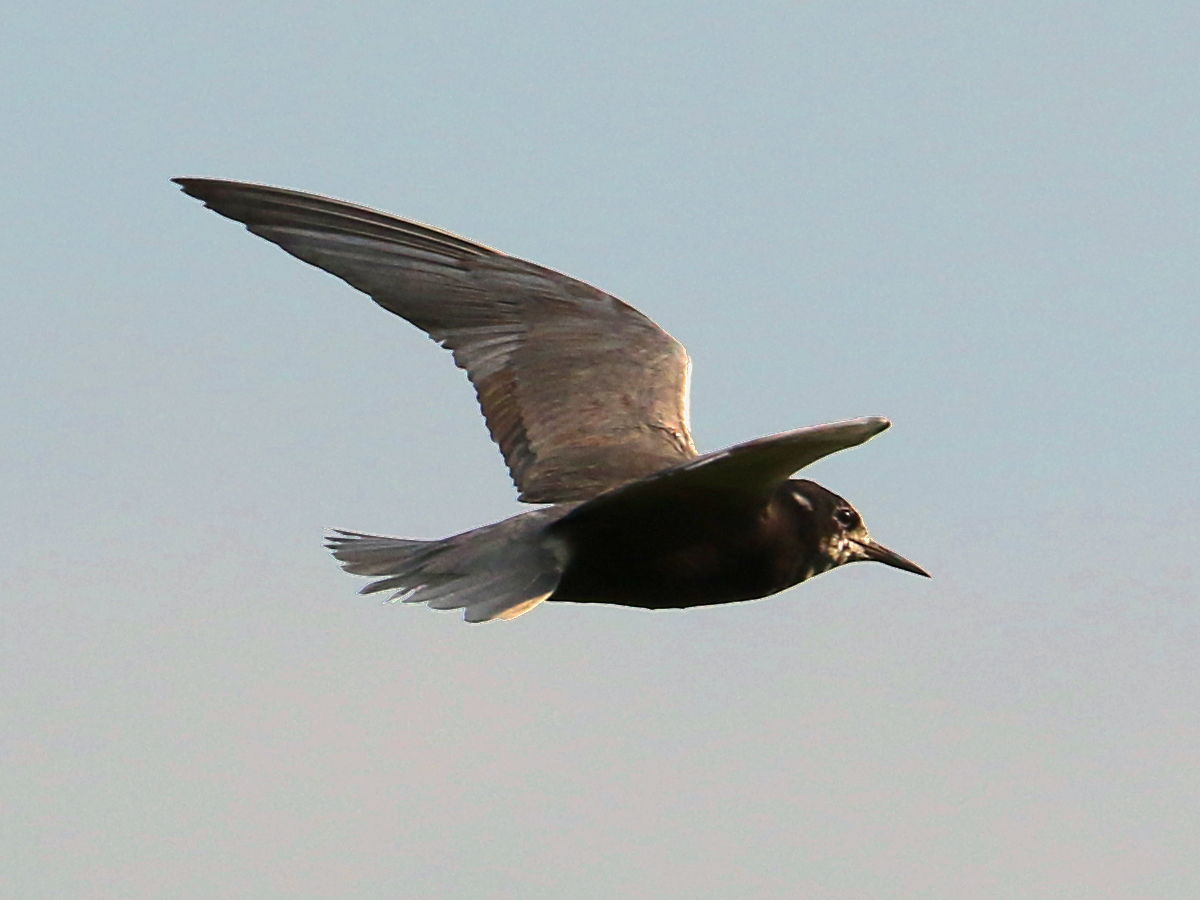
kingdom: Animalia
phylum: Chordata
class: Aves
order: Charadriiformes
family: Laridae
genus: Chlidonias
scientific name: Chlidonias niger
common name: Black tern
